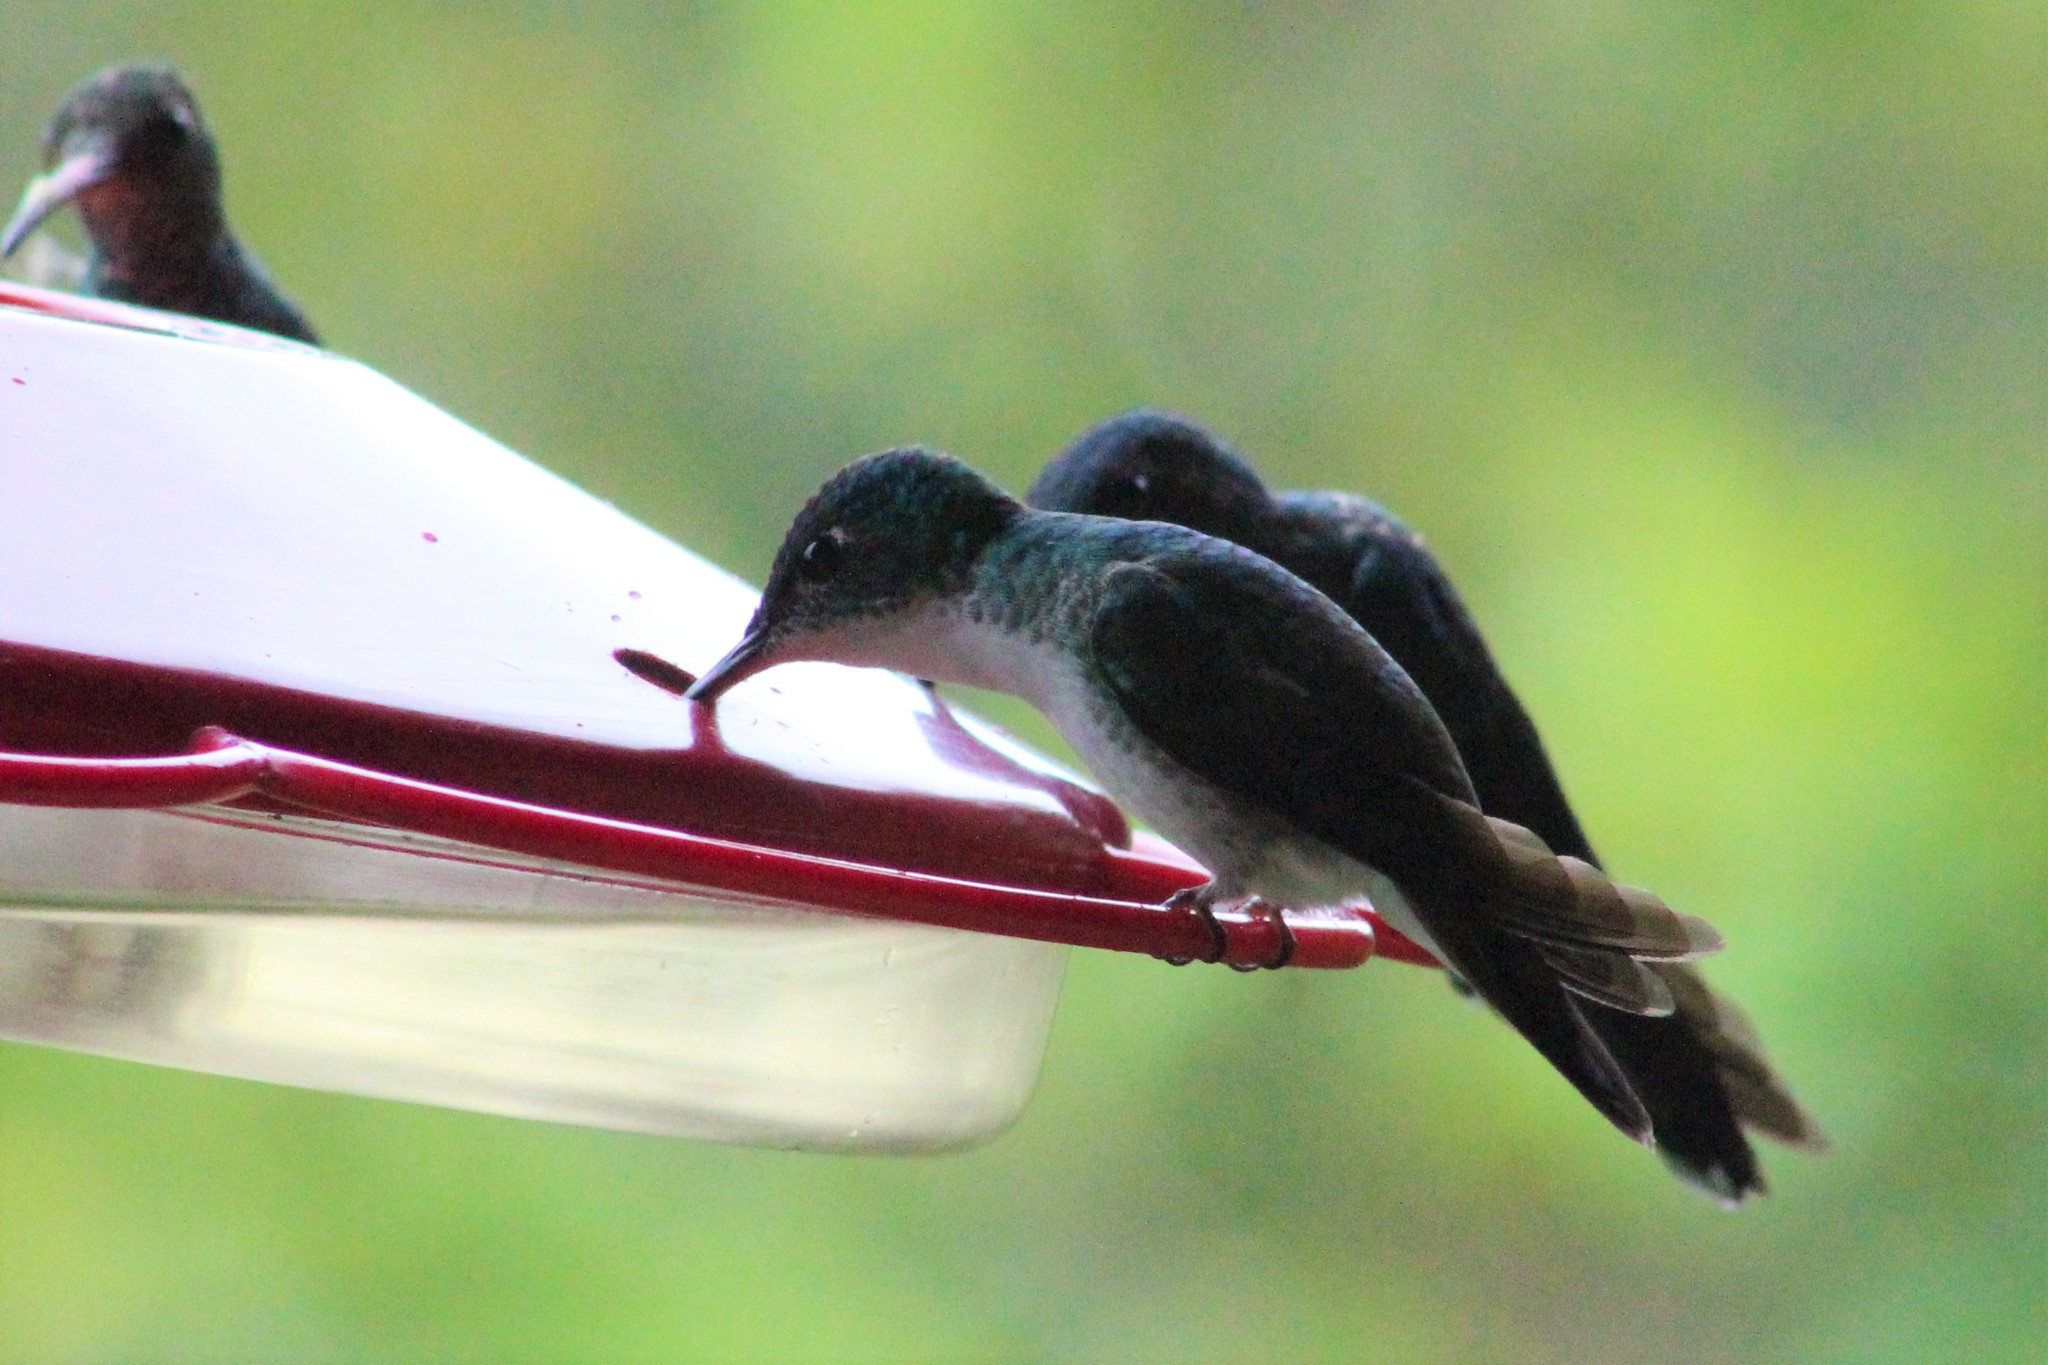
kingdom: Animalia
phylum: Chordata
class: Aves
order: Apodiformes
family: Trochilidae
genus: Uranomitra
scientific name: Uranomitra franciae
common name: Andean emerald
